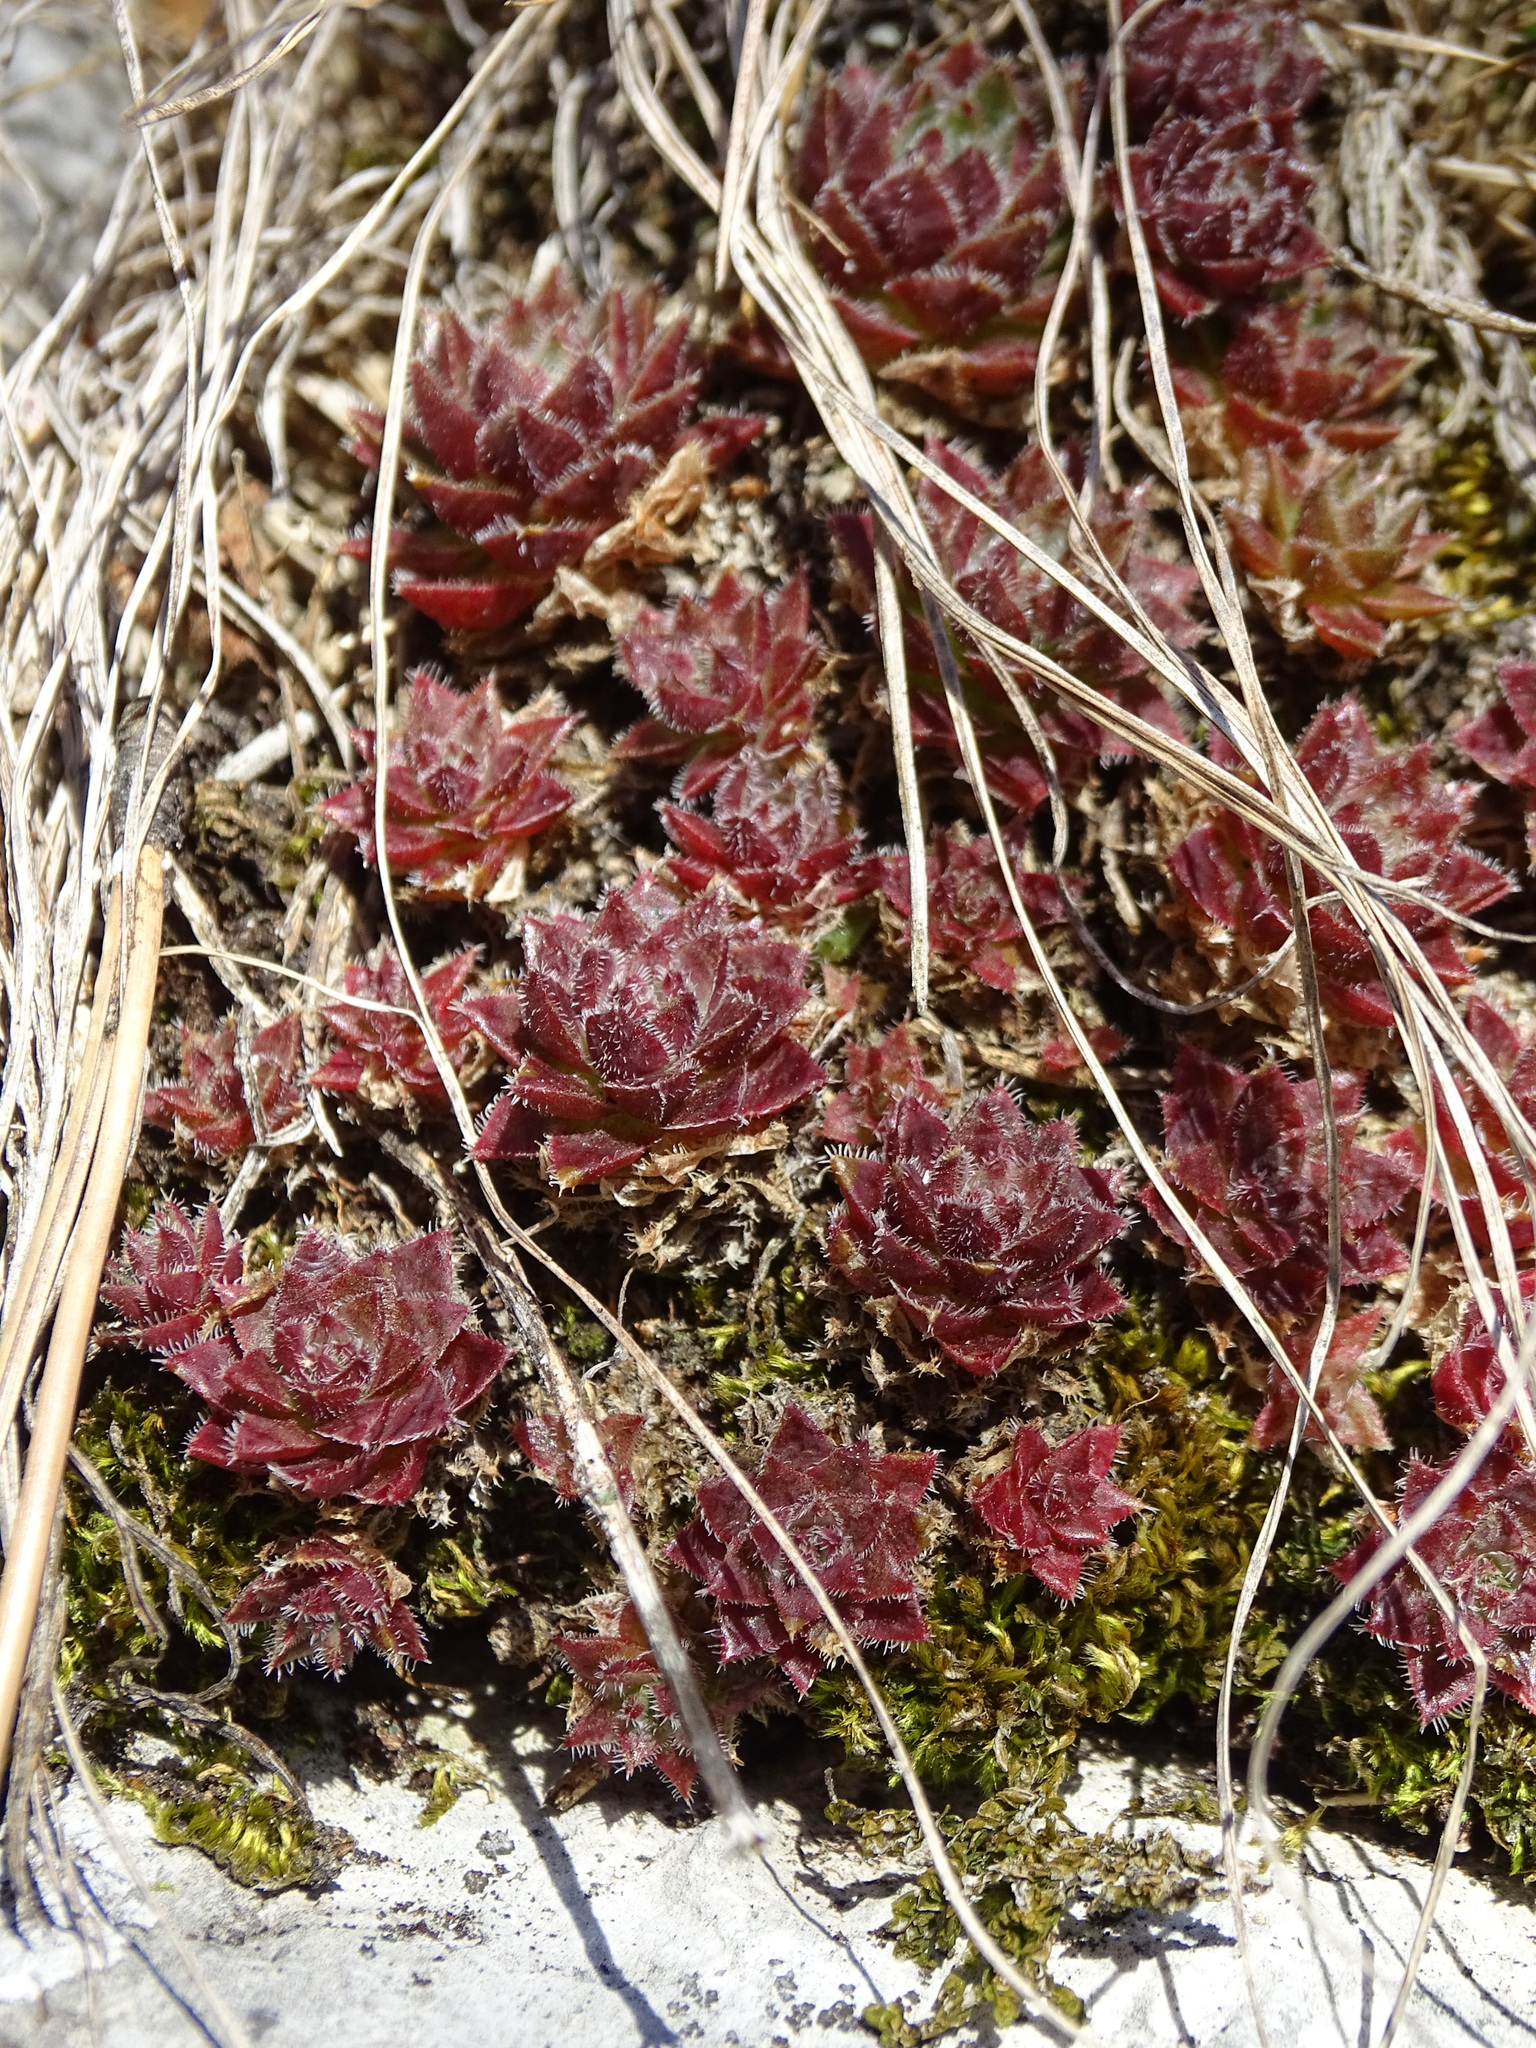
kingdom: Plantae
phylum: Tracheophyta
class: Magnoliopsida
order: Saxifragales
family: Crassulaceae
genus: Sempervivum
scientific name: Sempervivum globiferum
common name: Rolling hen-and-chicks
